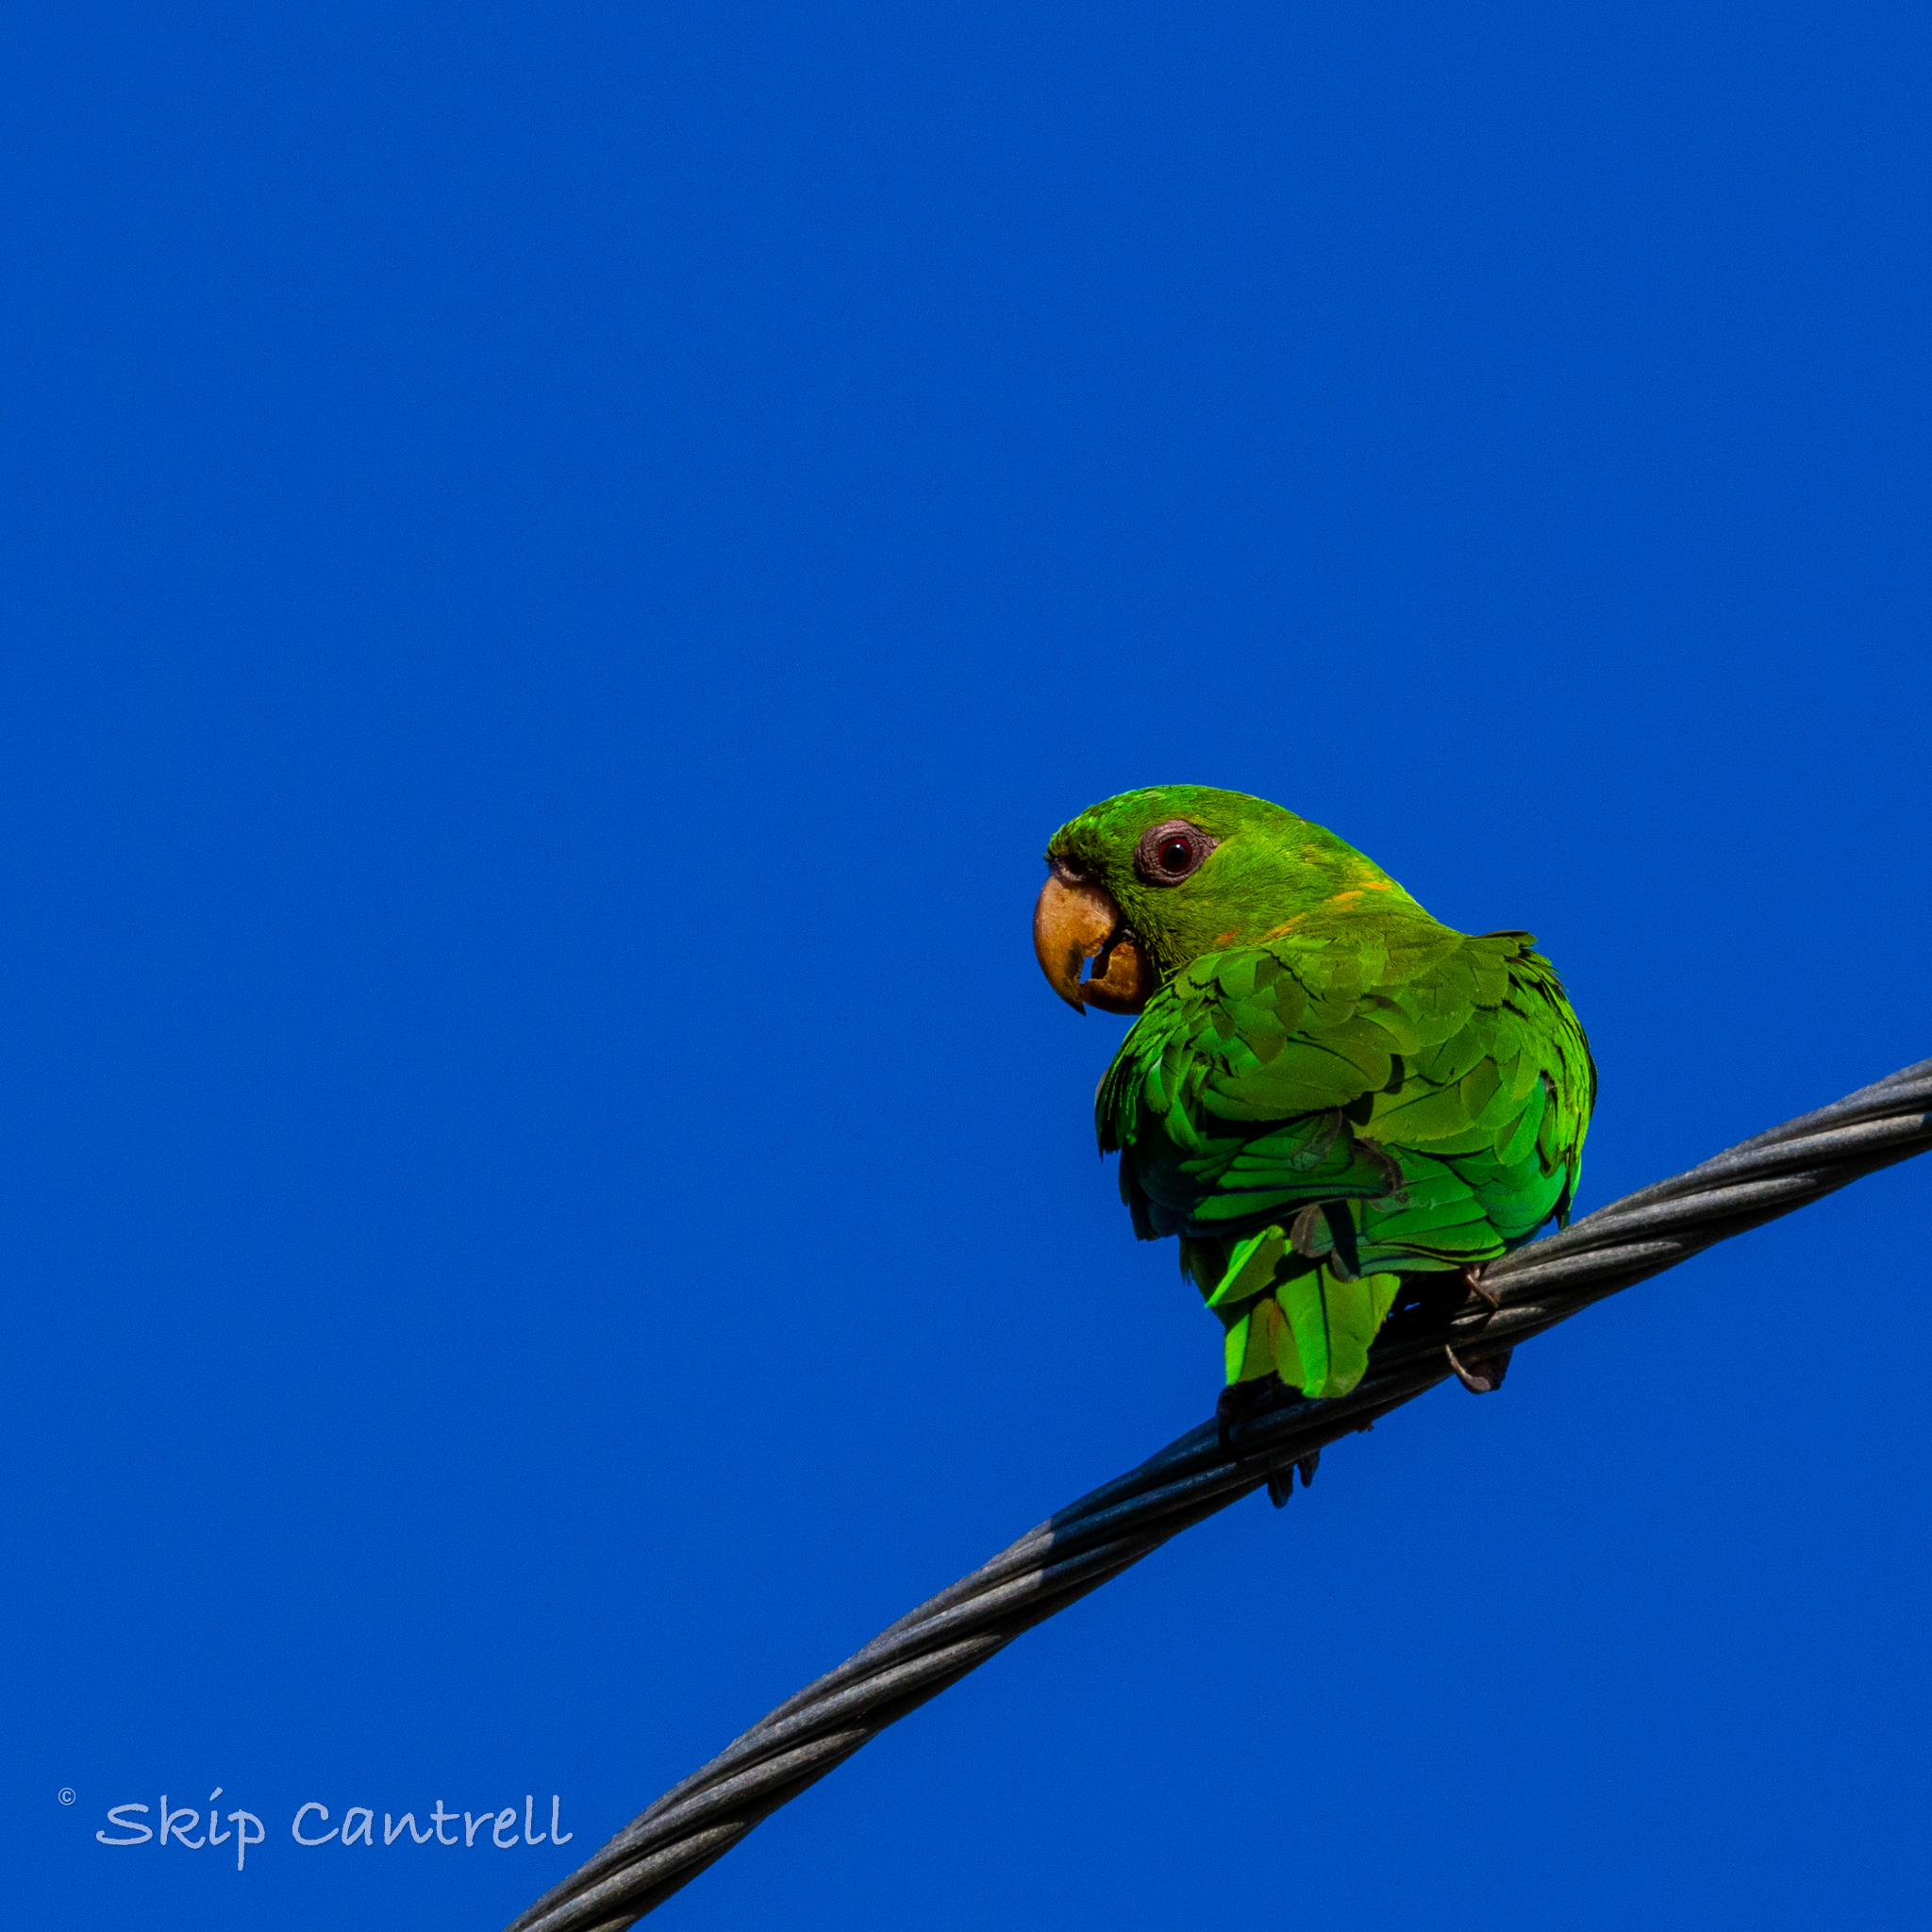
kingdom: Animalia
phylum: Chordata
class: Aves
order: Psittaciformes
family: Psittacidae
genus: Aratinga
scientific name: Aratinga holochlora
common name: Green parakeet
